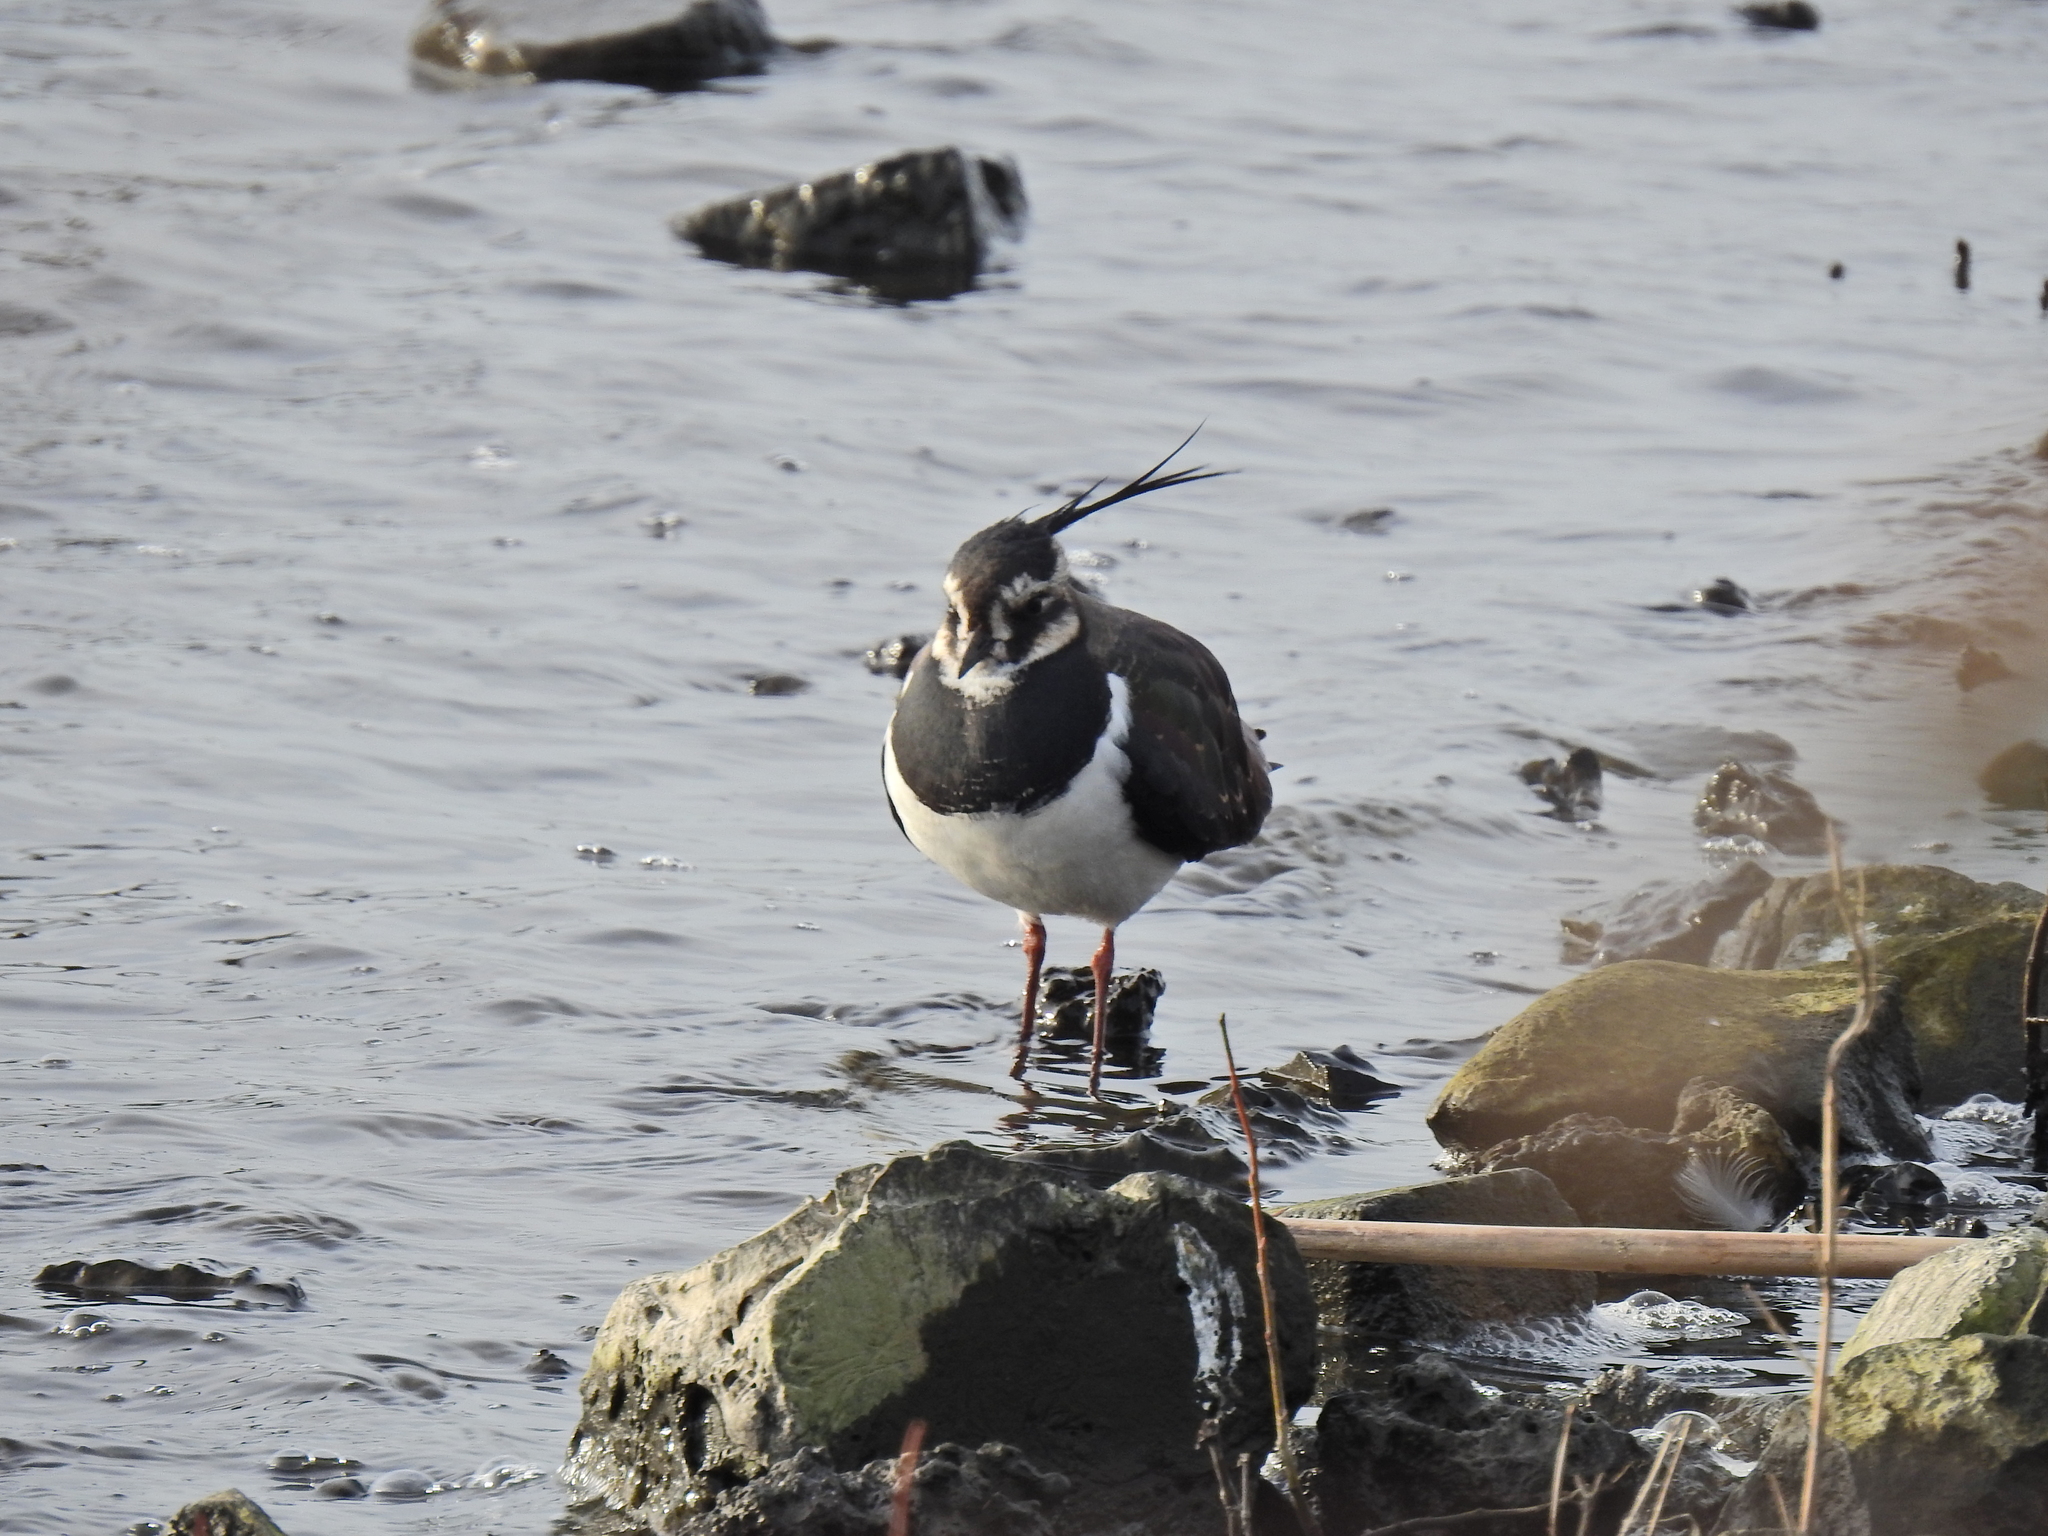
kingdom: Animalia
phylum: Chordata
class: Aves
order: Charadriiformes
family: Charadriidae
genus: Vanellus
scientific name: Vanellus vanellus
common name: Northern lapwing
